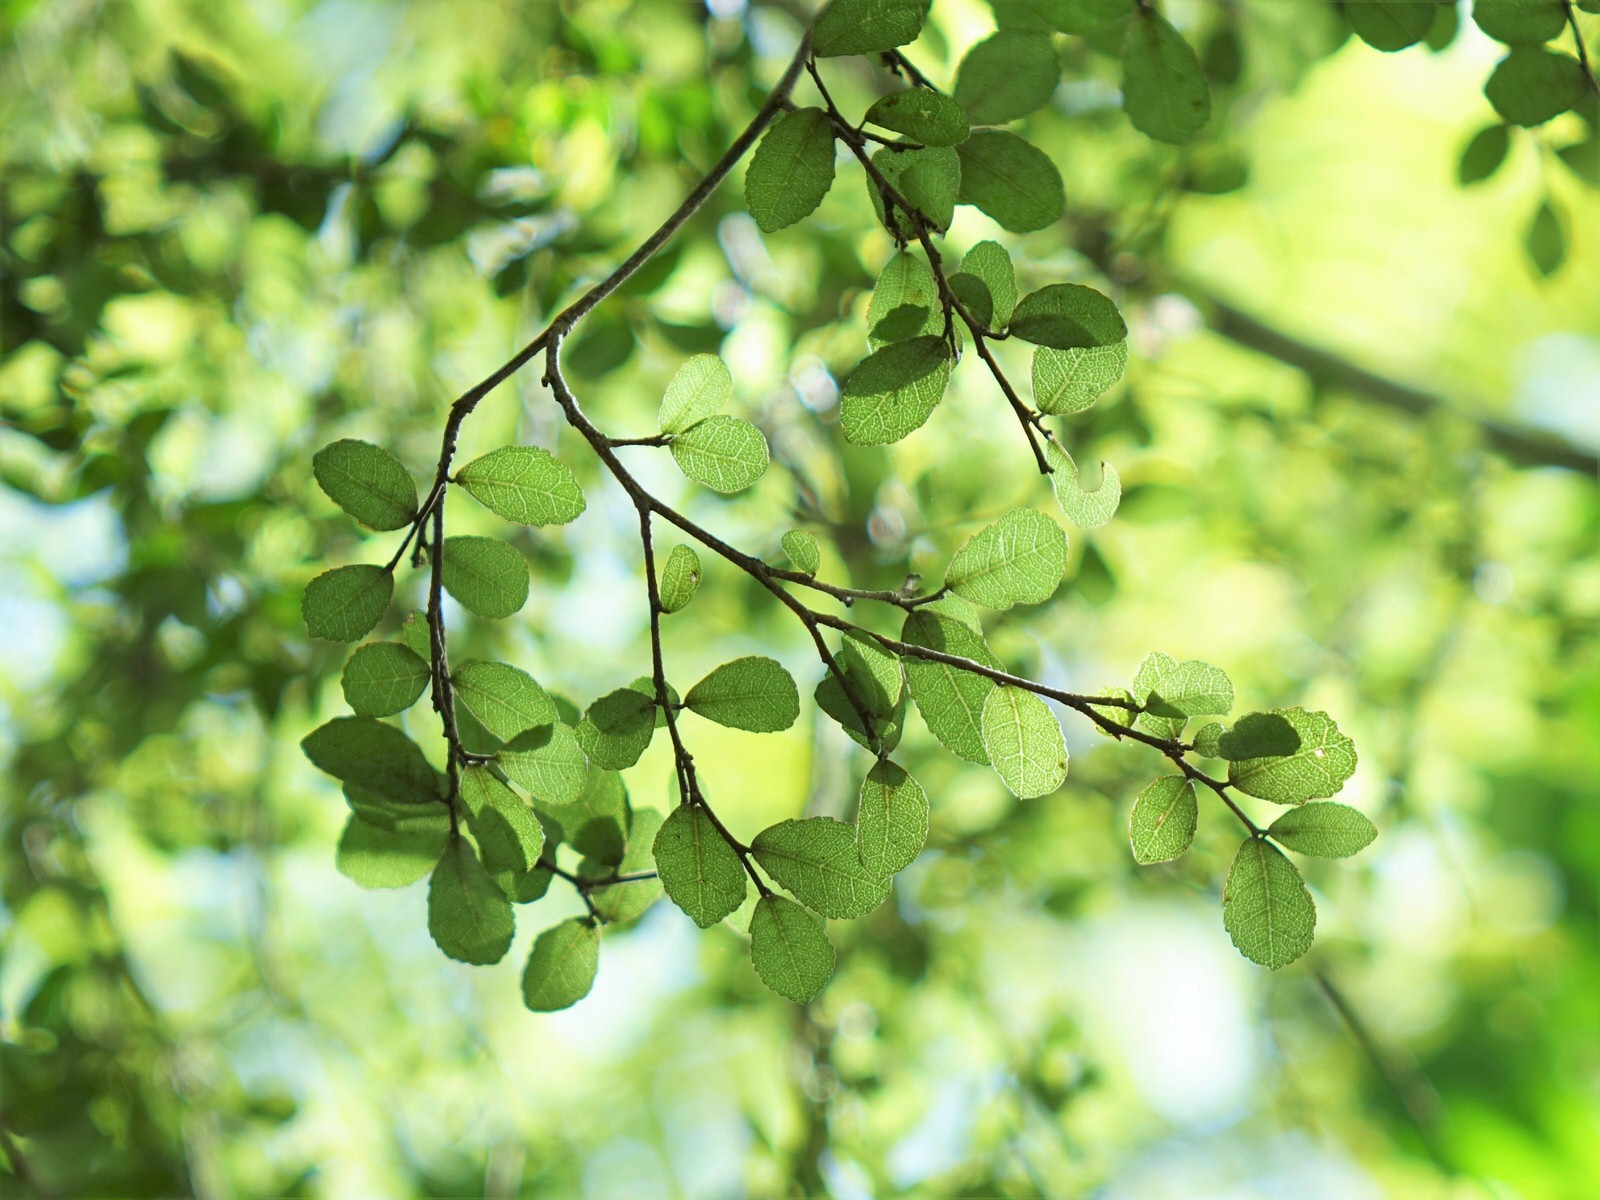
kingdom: Plantae
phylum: Tracheophyta
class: Magnoliopsida
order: Rosales
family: Moraceae
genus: Paratrophis
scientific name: Paratrophis microphylla
